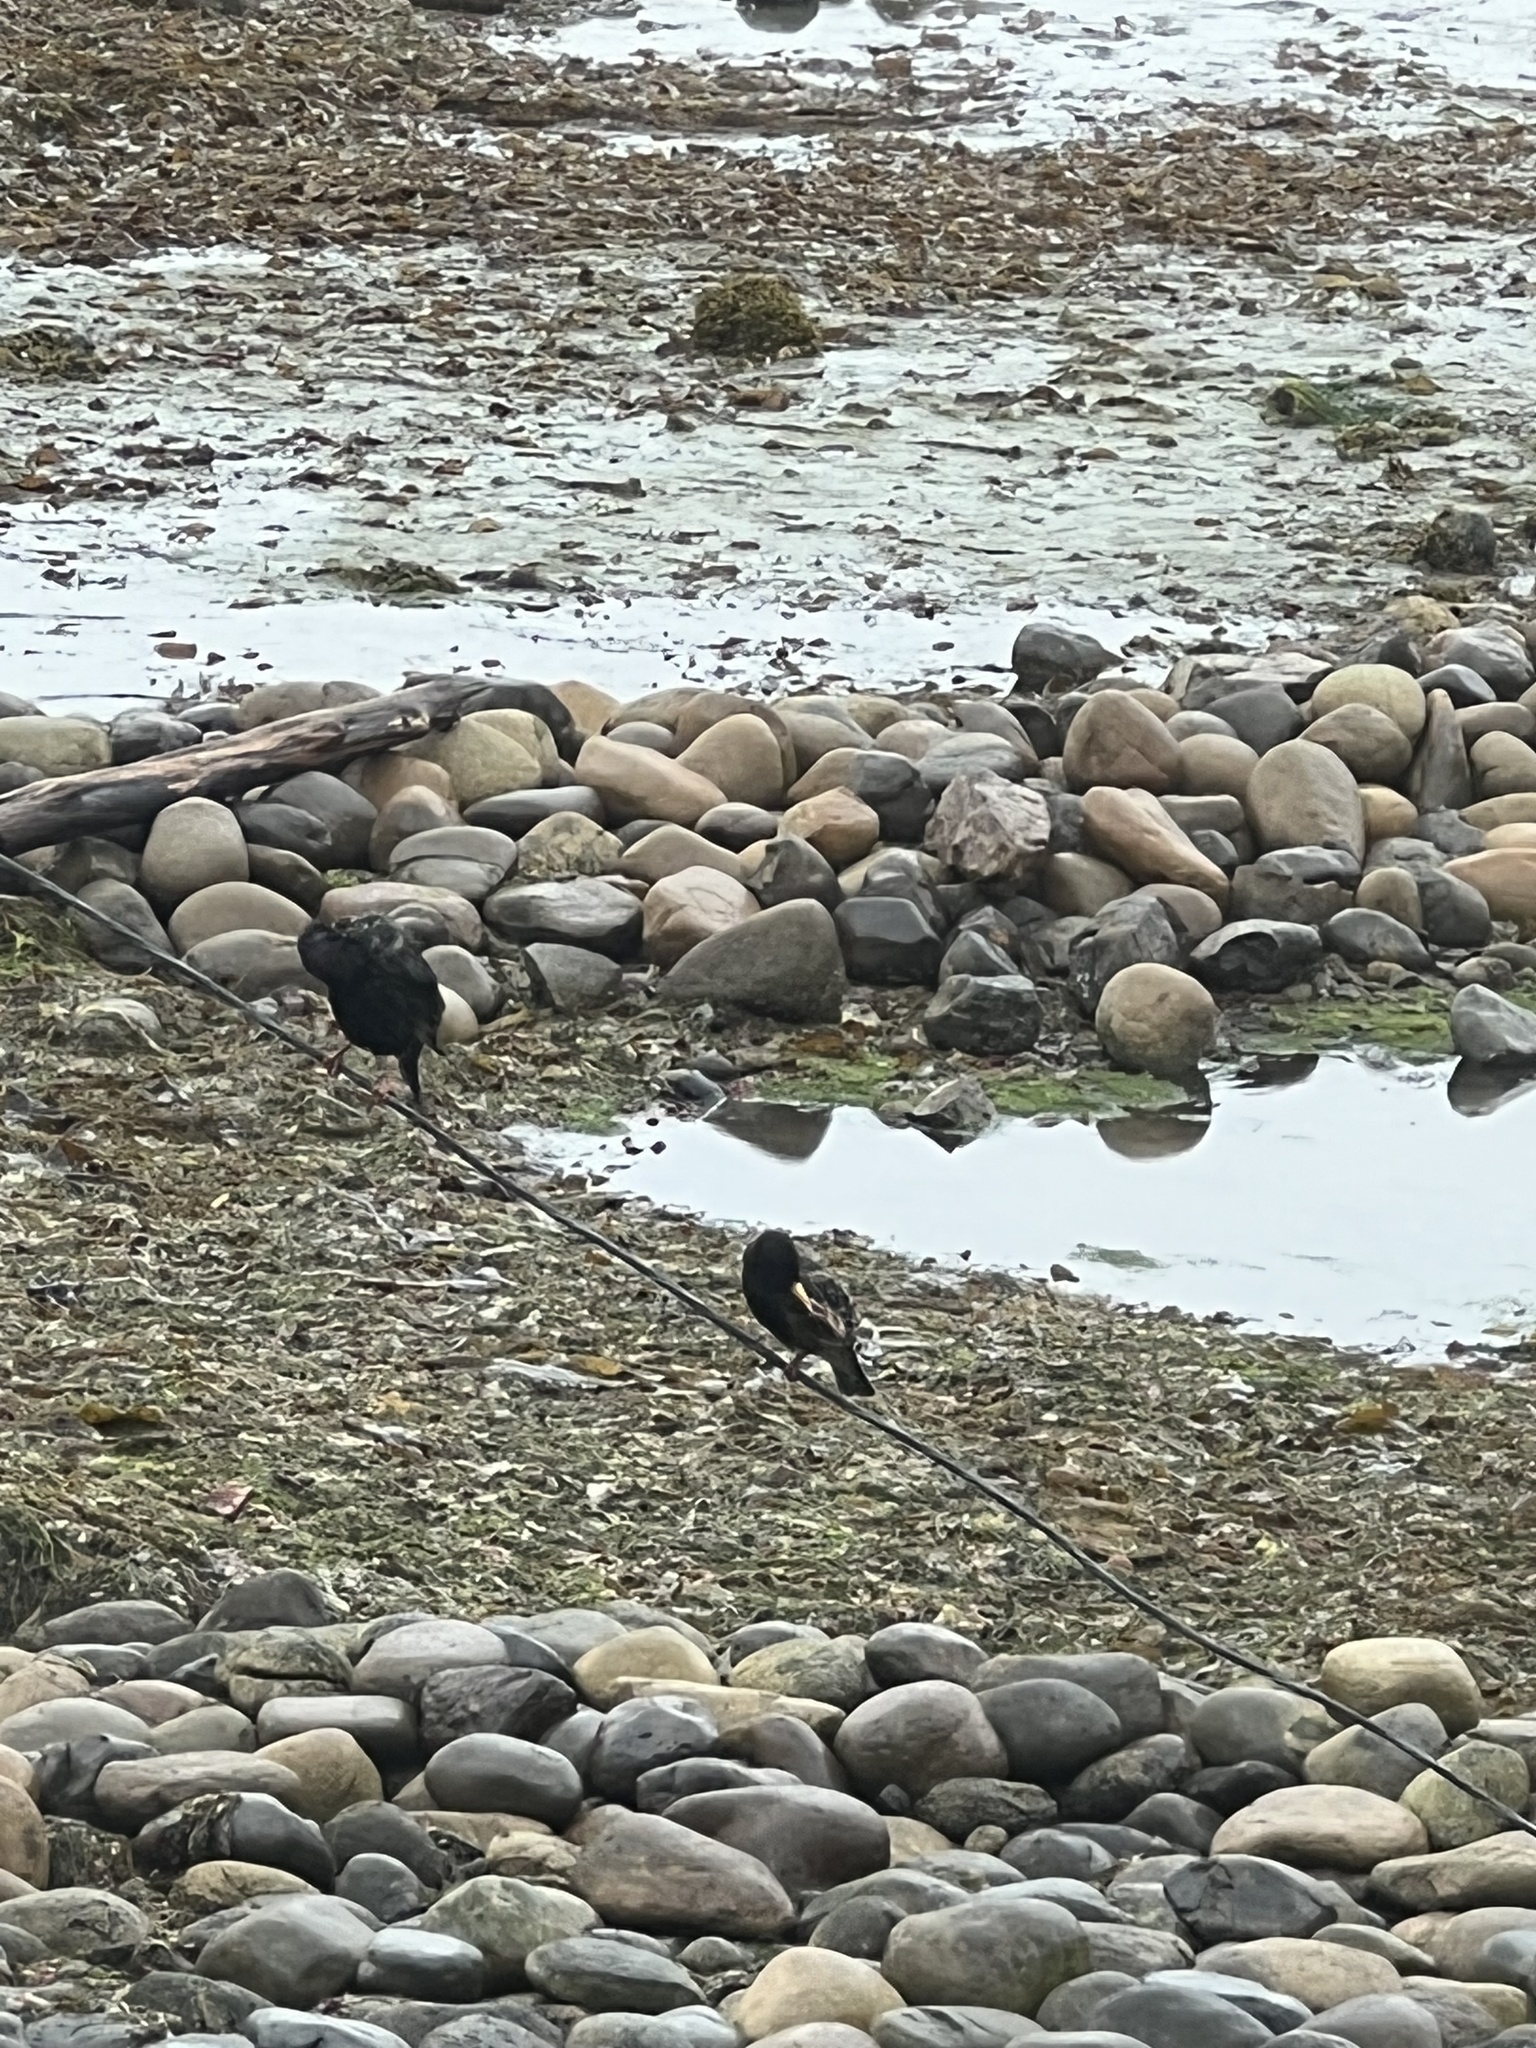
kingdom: Animalia
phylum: Chordata
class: Aves
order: Passeriformes
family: Sturnidae
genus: Sturnus
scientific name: Sturnus vulgaris
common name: Common starling
